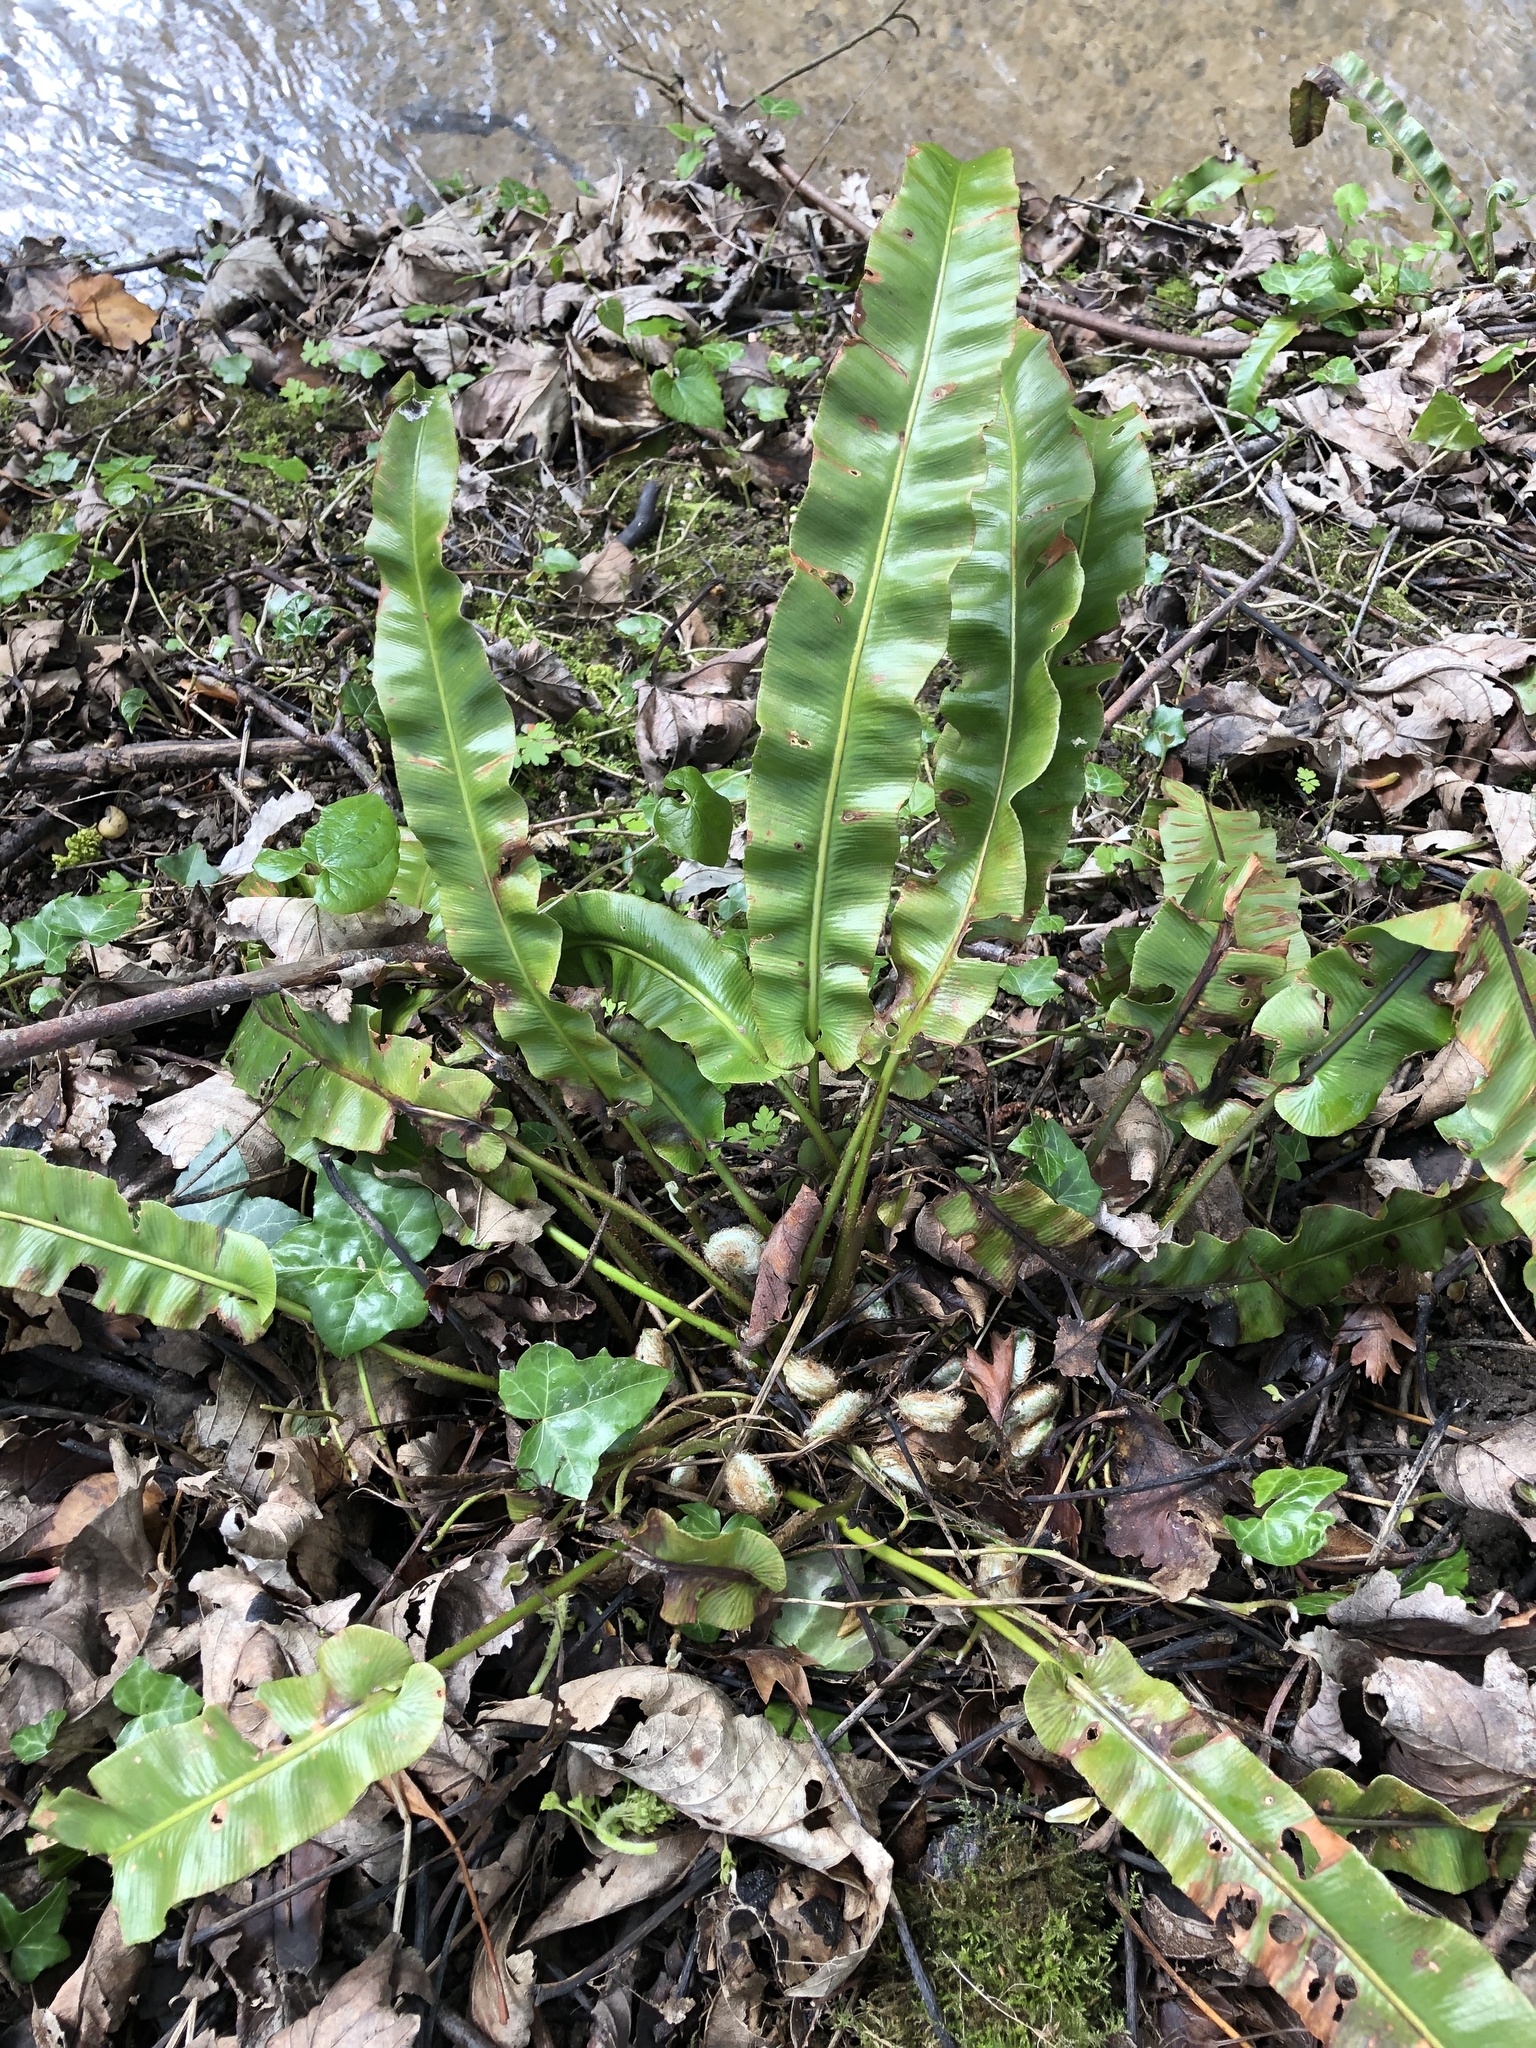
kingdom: Plantae
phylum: Tracheophyta
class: Polypodiopsida
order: Polypodiales
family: Aspleniaceae
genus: Asplenium
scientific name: Asplenium scolopendrium
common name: Hart's-tongue fern
